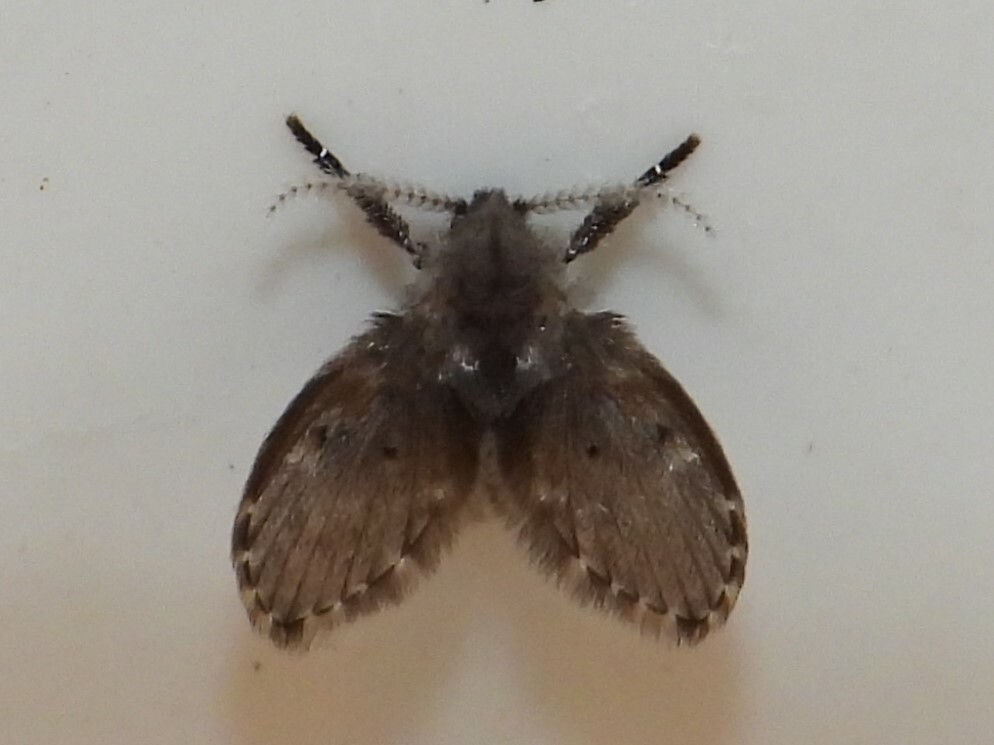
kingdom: Animalia
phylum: Arthropoda
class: Insecta
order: Diptera
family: Psychodidae
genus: Clogmia
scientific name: Clogmia albipunctatus
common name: White-spotted moth fly
